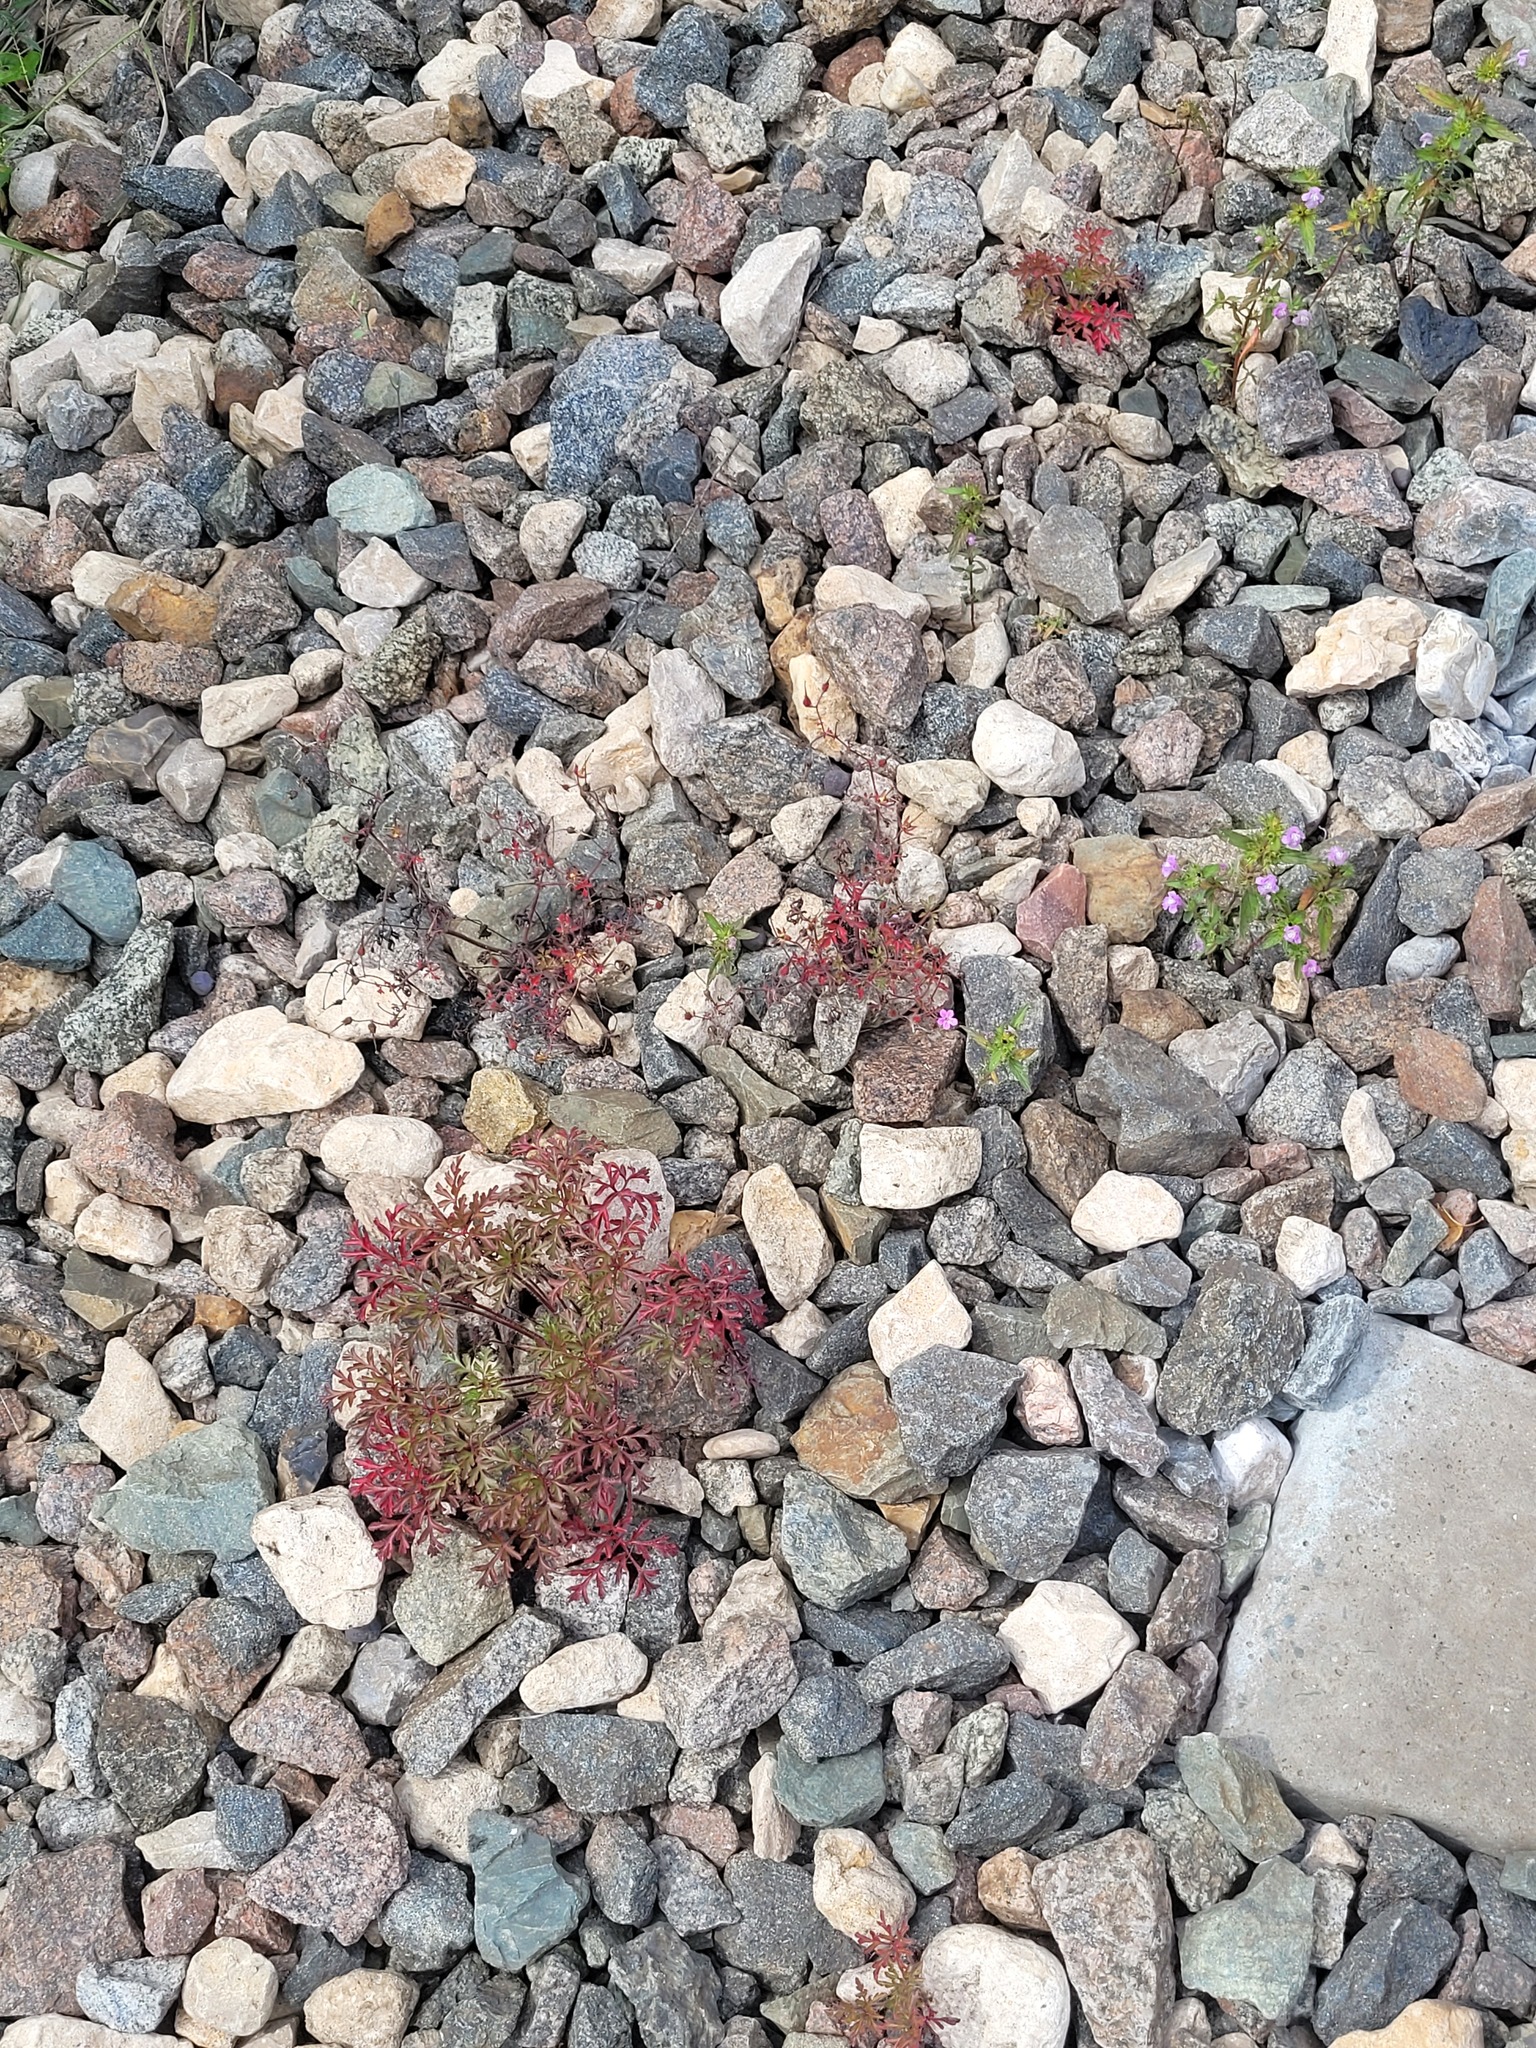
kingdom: Plantae
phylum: Tracheophyta
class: Magnoliopsida
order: Geraniales
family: Geraniaceae
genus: Geranium
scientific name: Geranium robertianum
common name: Herb-robert
